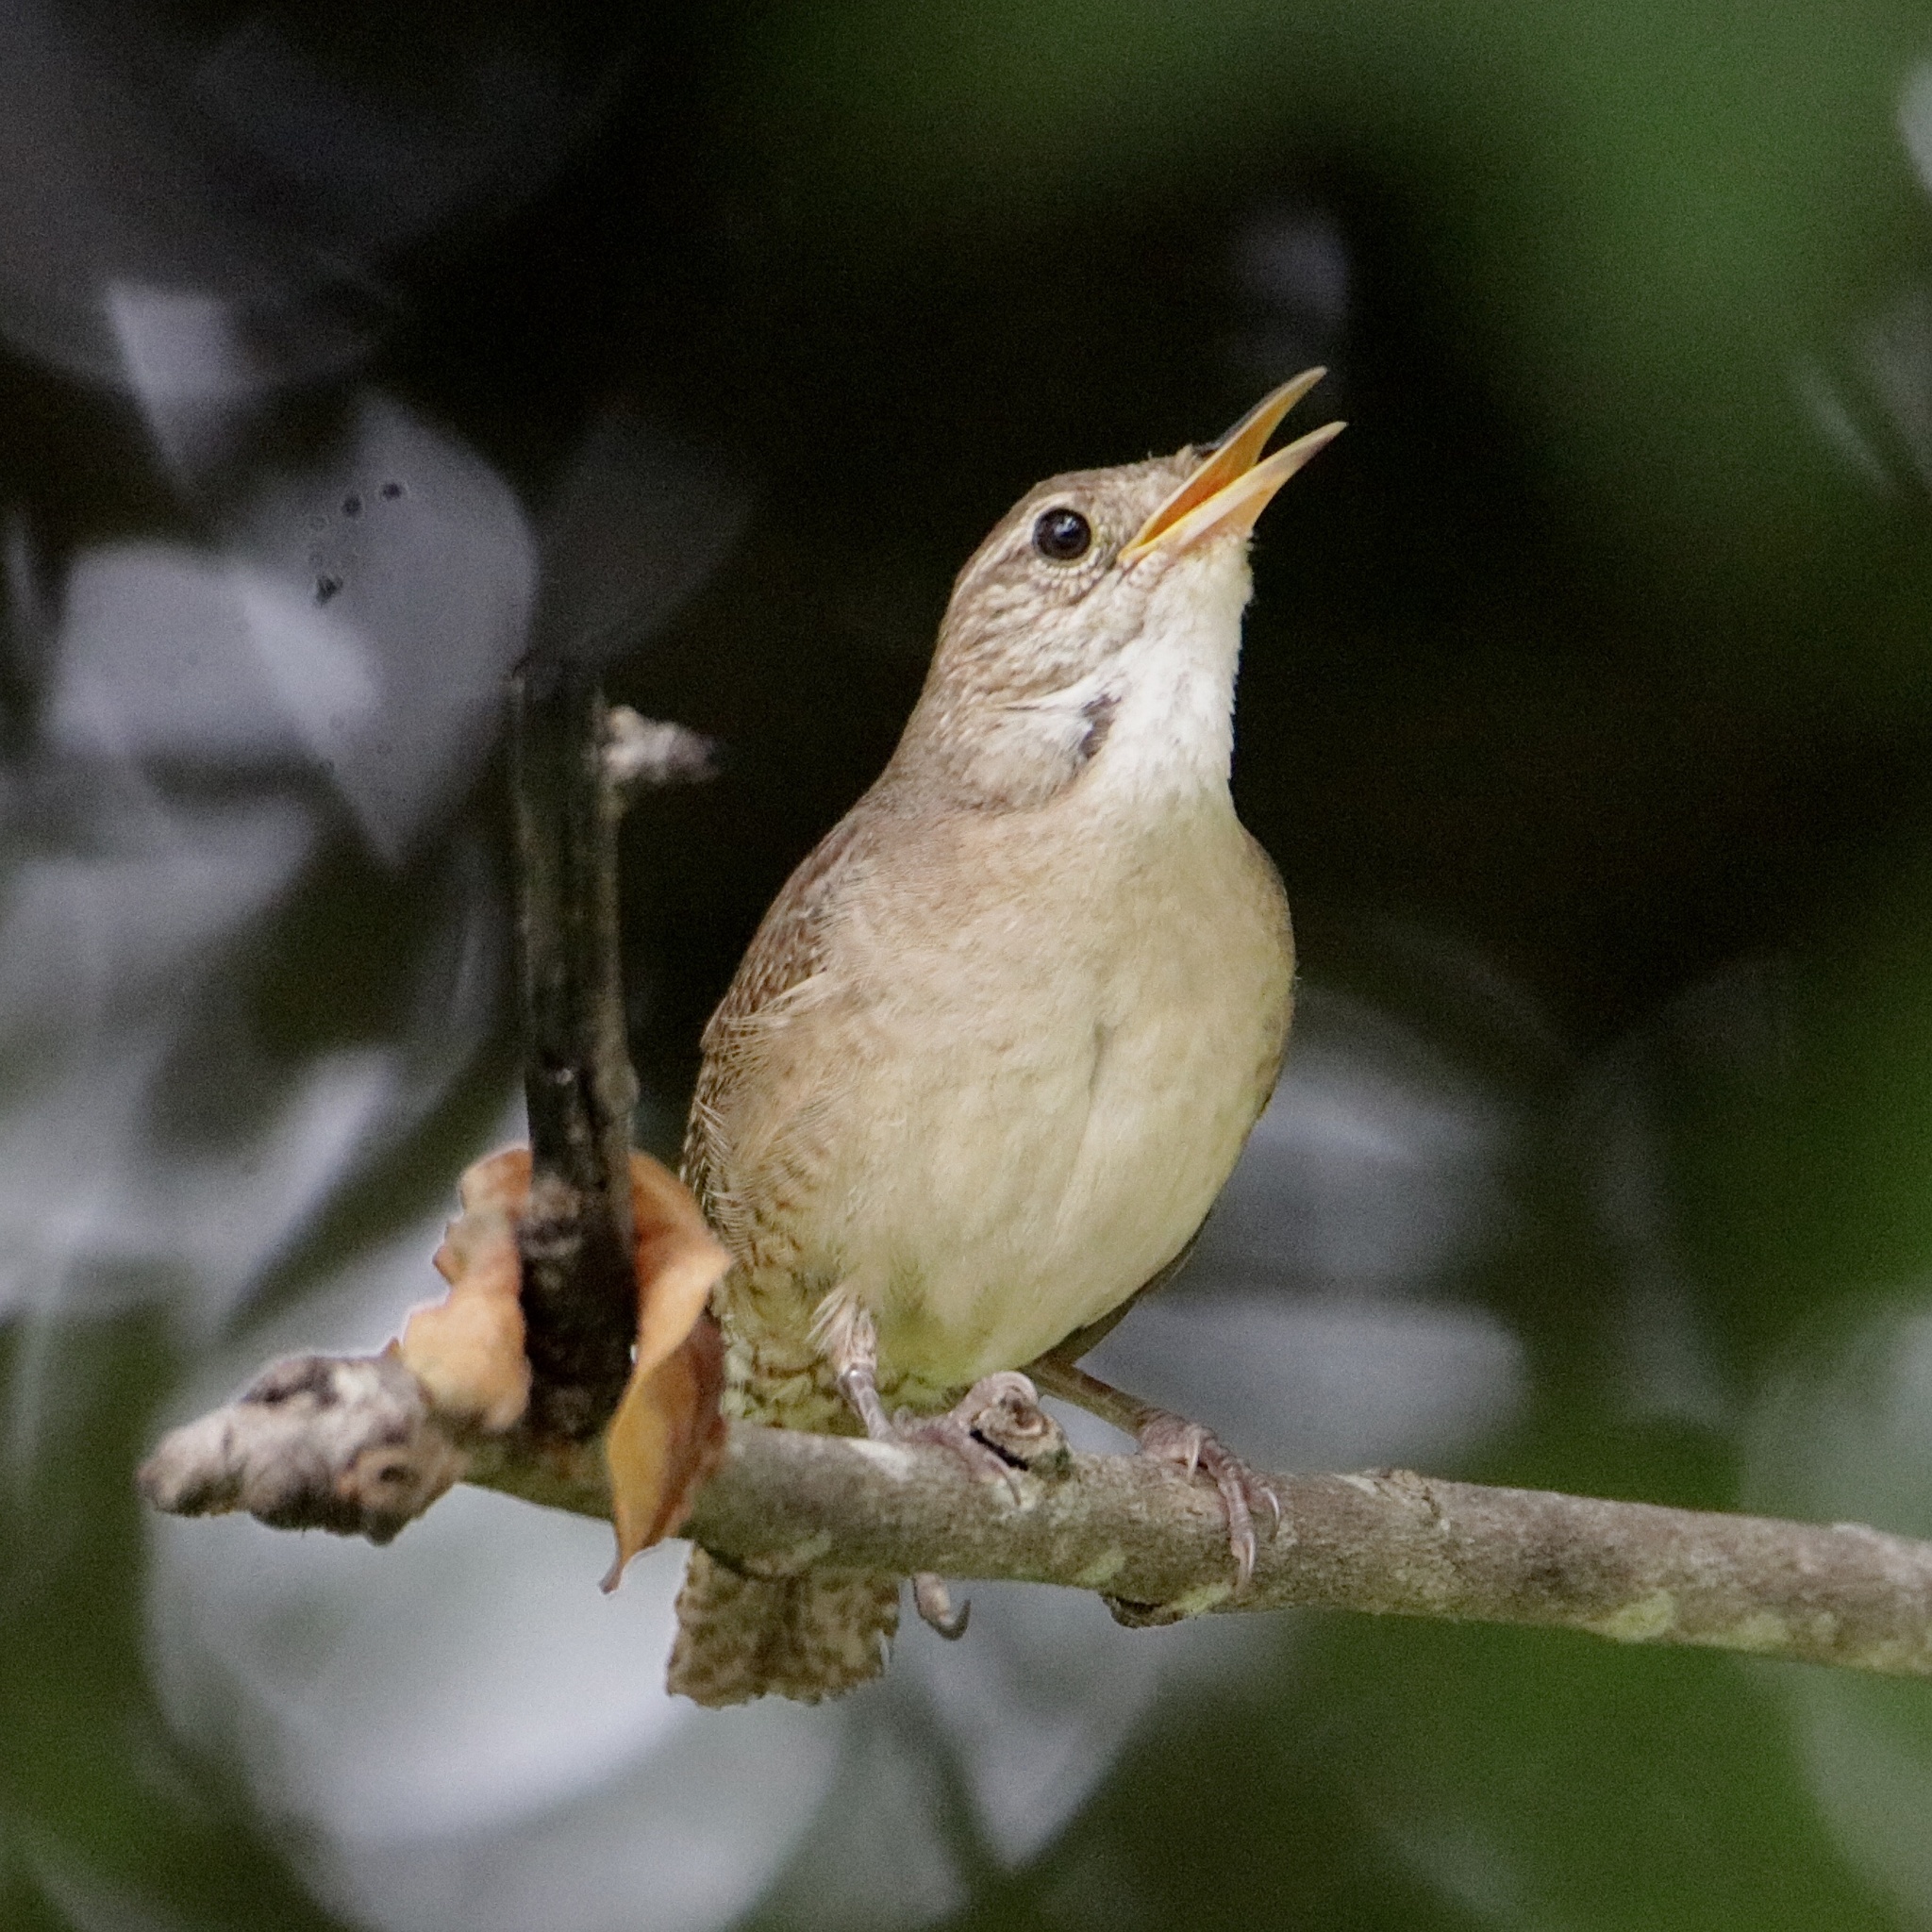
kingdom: Animalia
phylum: Chordata
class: Aves
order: Passeriformes
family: Troglodytidae
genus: Troglodytes
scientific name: Troglodytes aedon
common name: House wren
